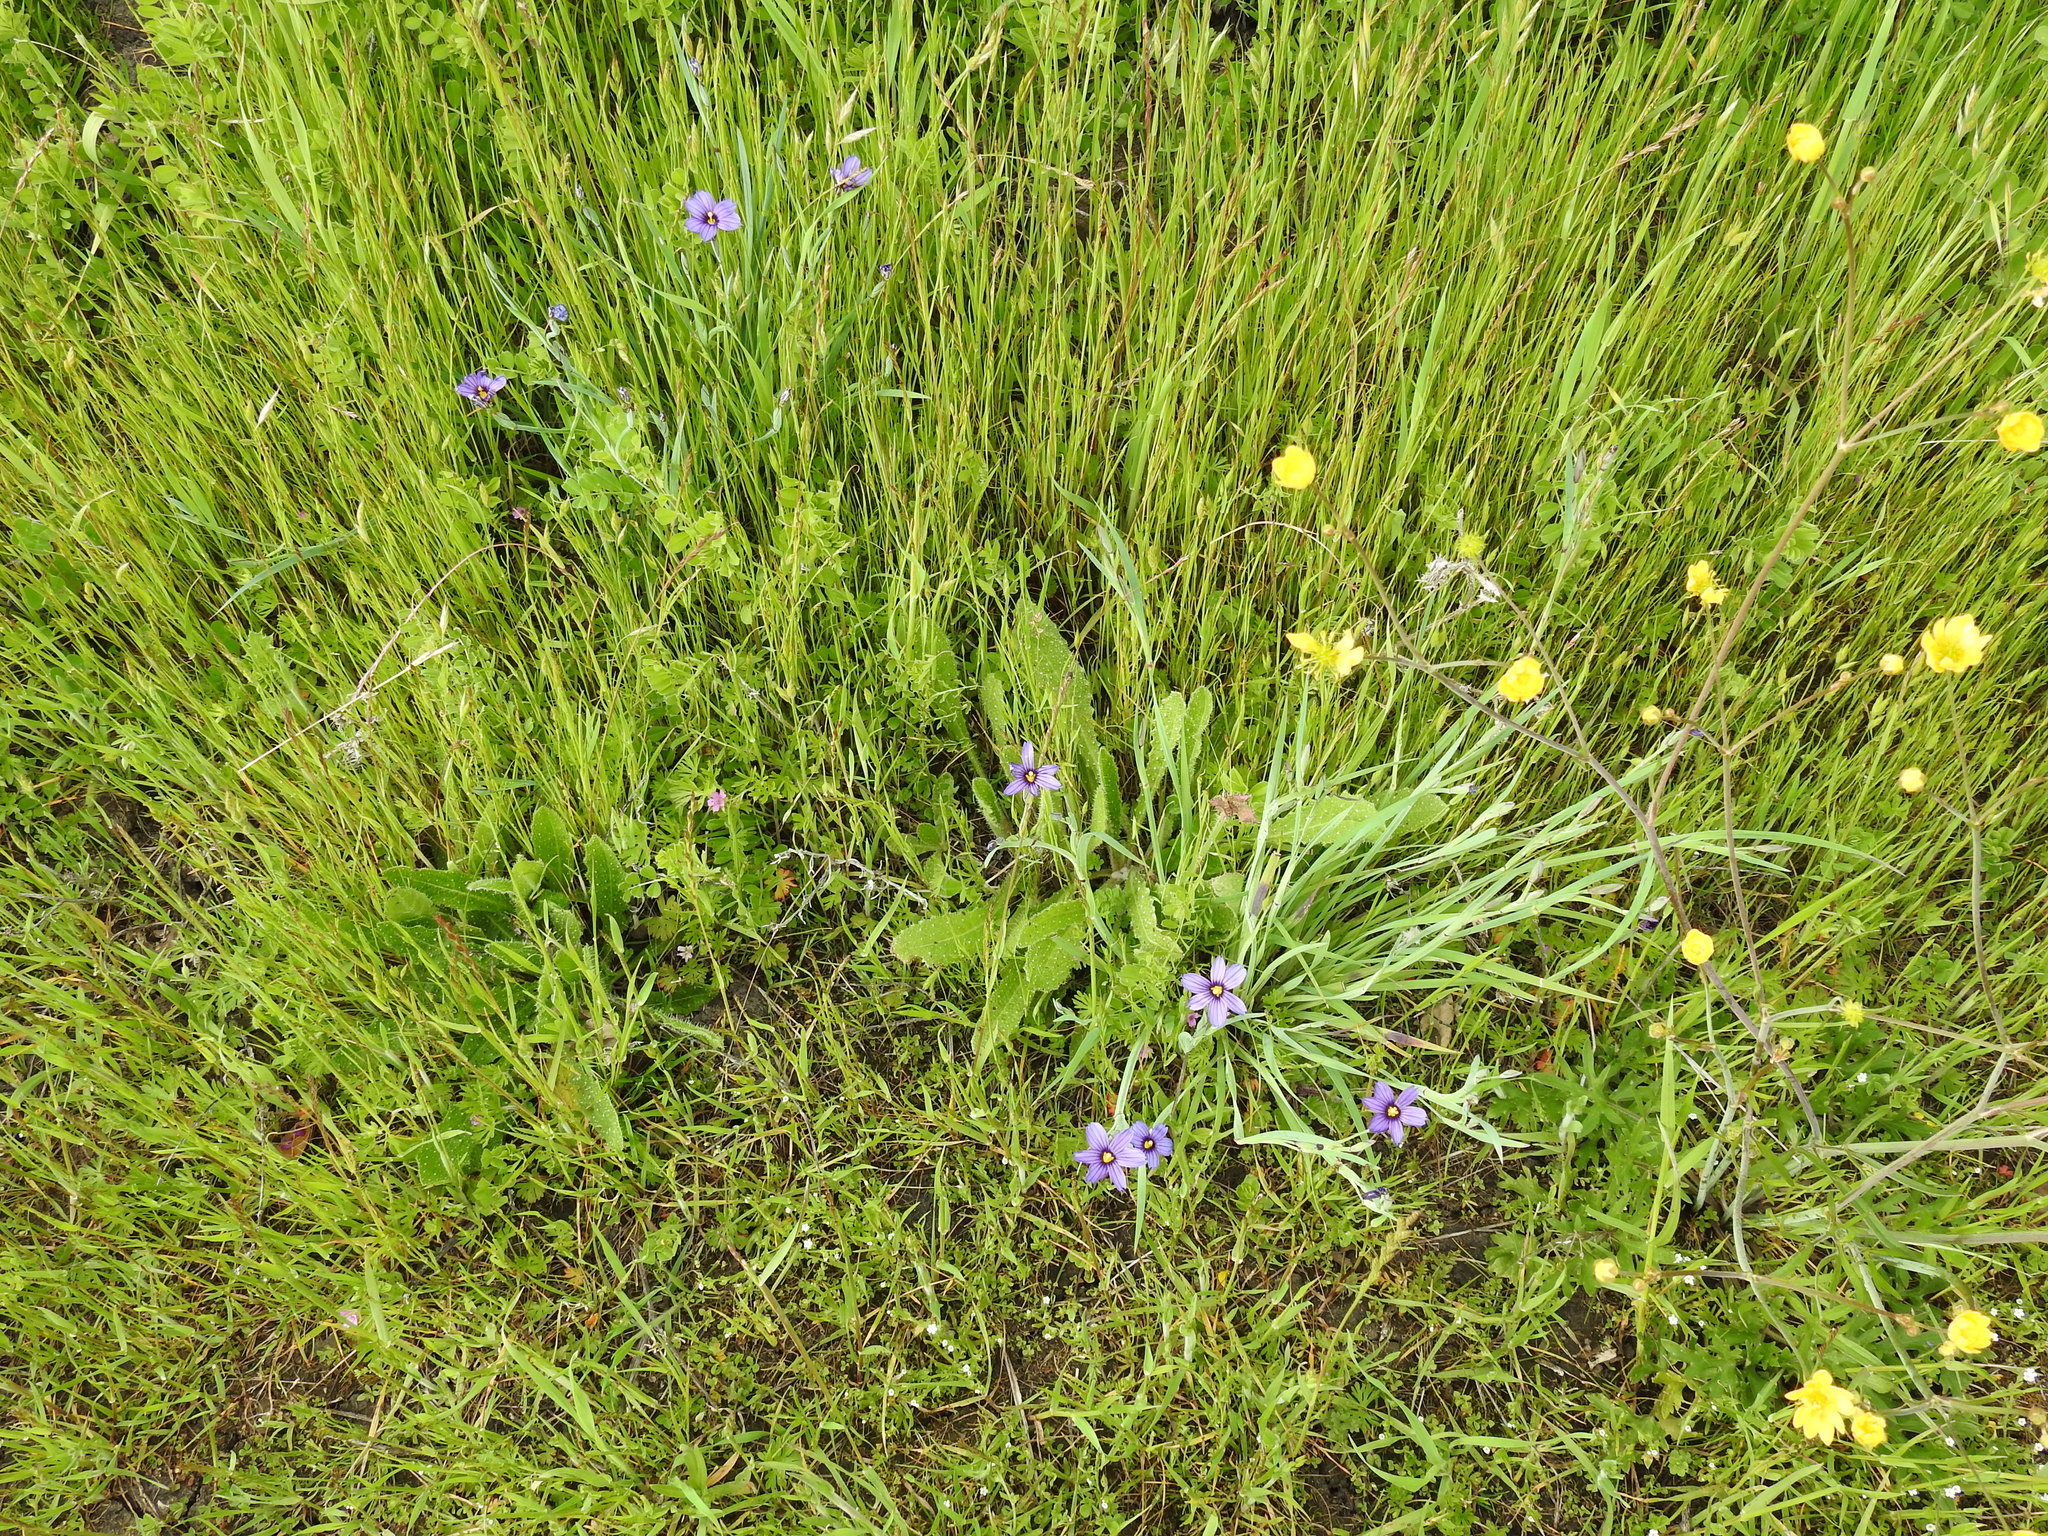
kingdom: Plantae
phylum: Tracheophyta
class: Liliopsida
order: Asparagales
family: Iridaceae
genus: Sisyrinchium
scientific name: Sisyrinchium bellum
